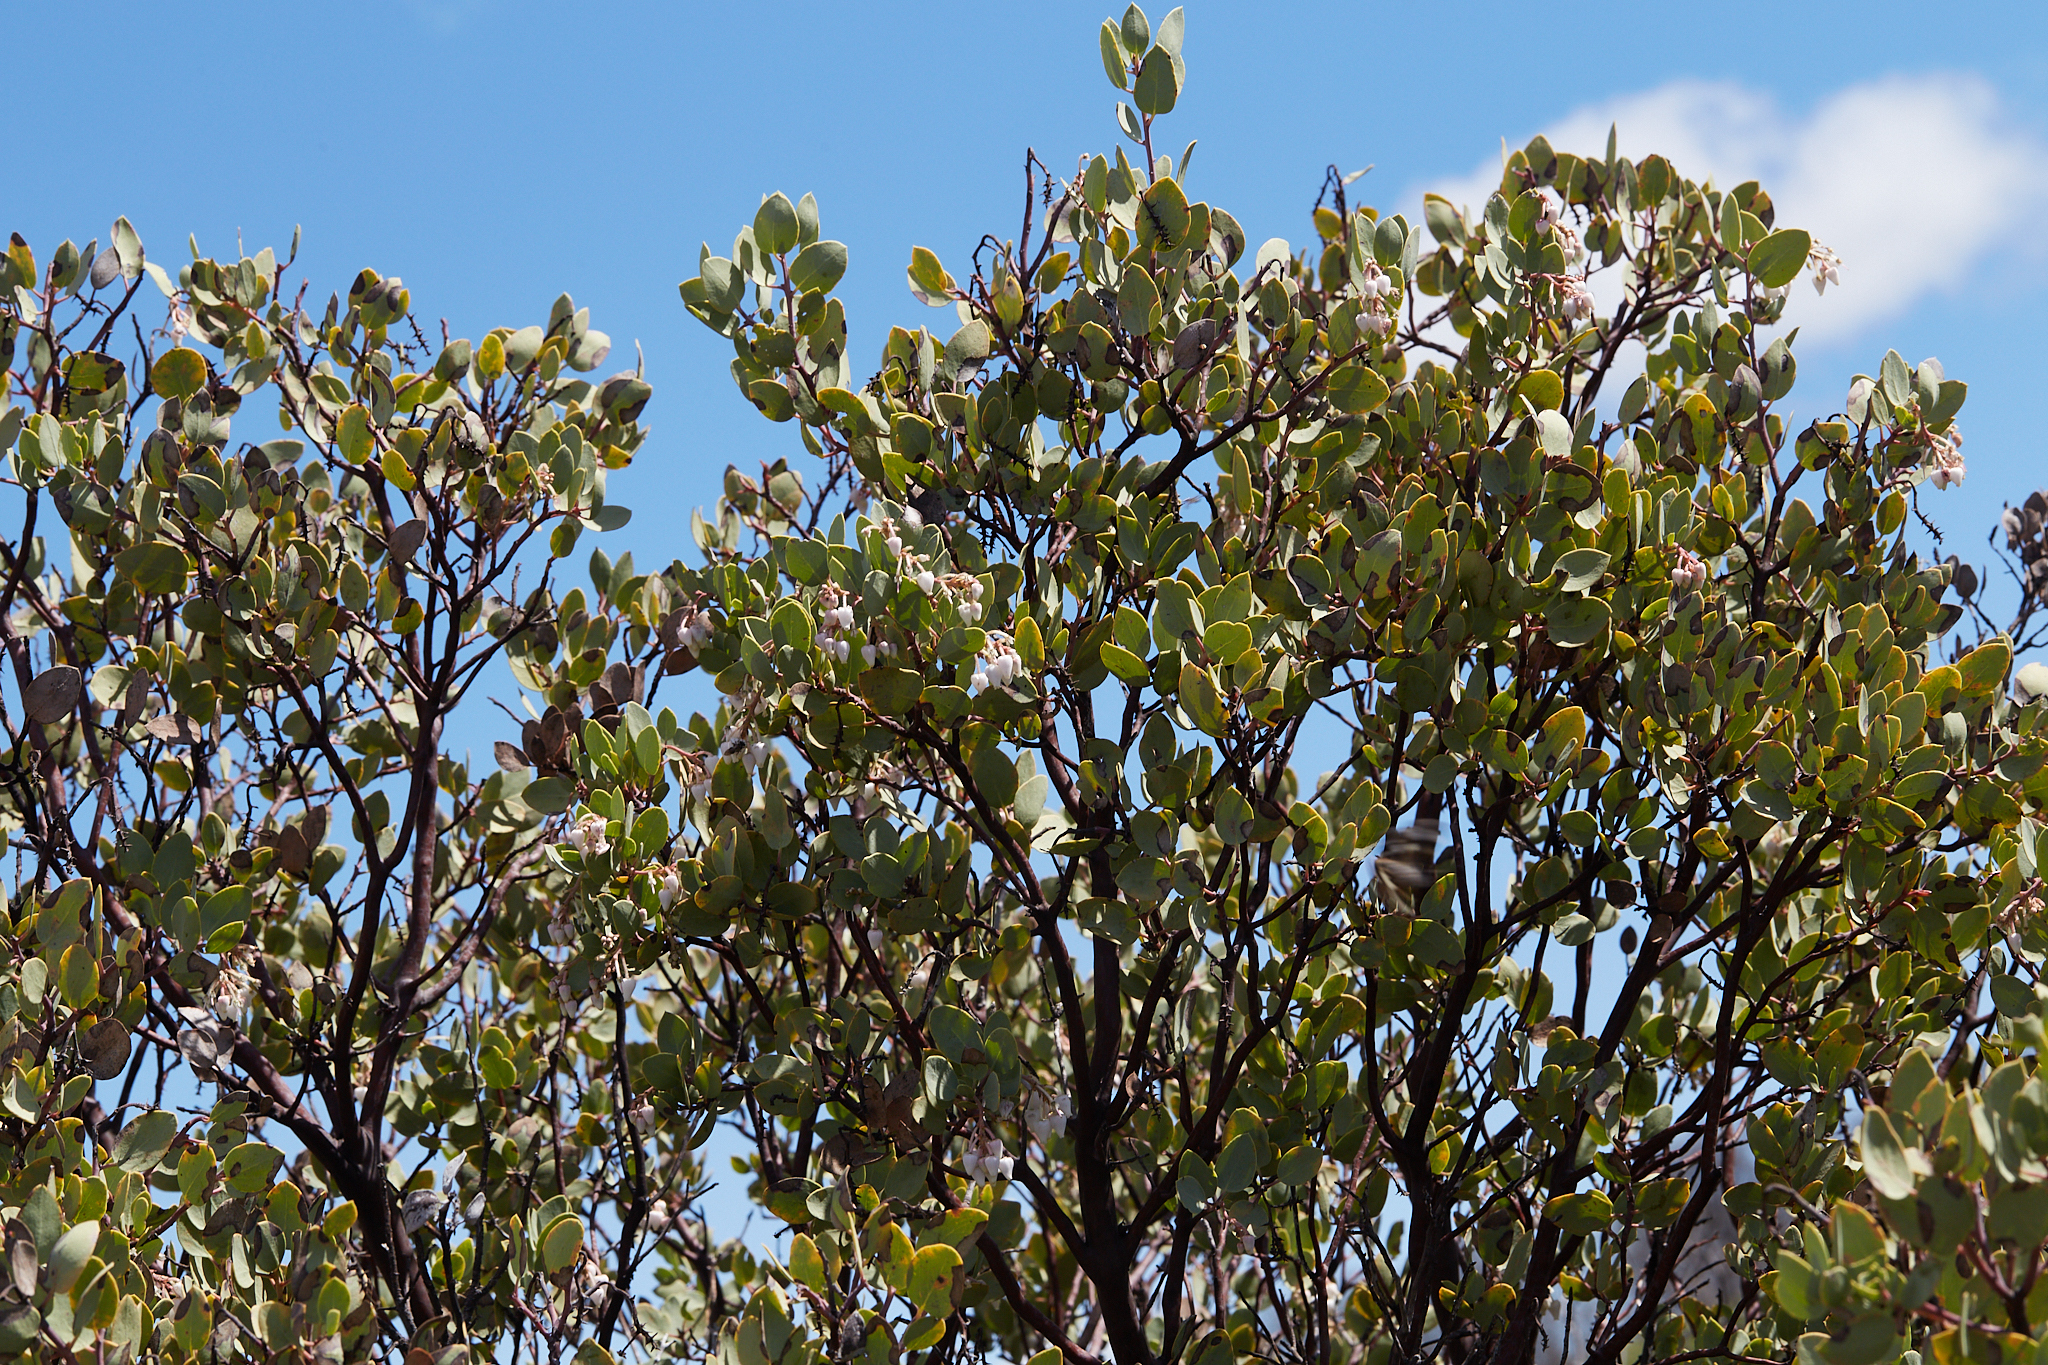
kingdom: Plantae
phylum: Tracheophyta
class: Magnoliopsida
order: Ericales
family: Ericaceae
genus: Arctostaphylos
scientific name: Arctostaphylos viscida
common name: White-leaf manzanita
